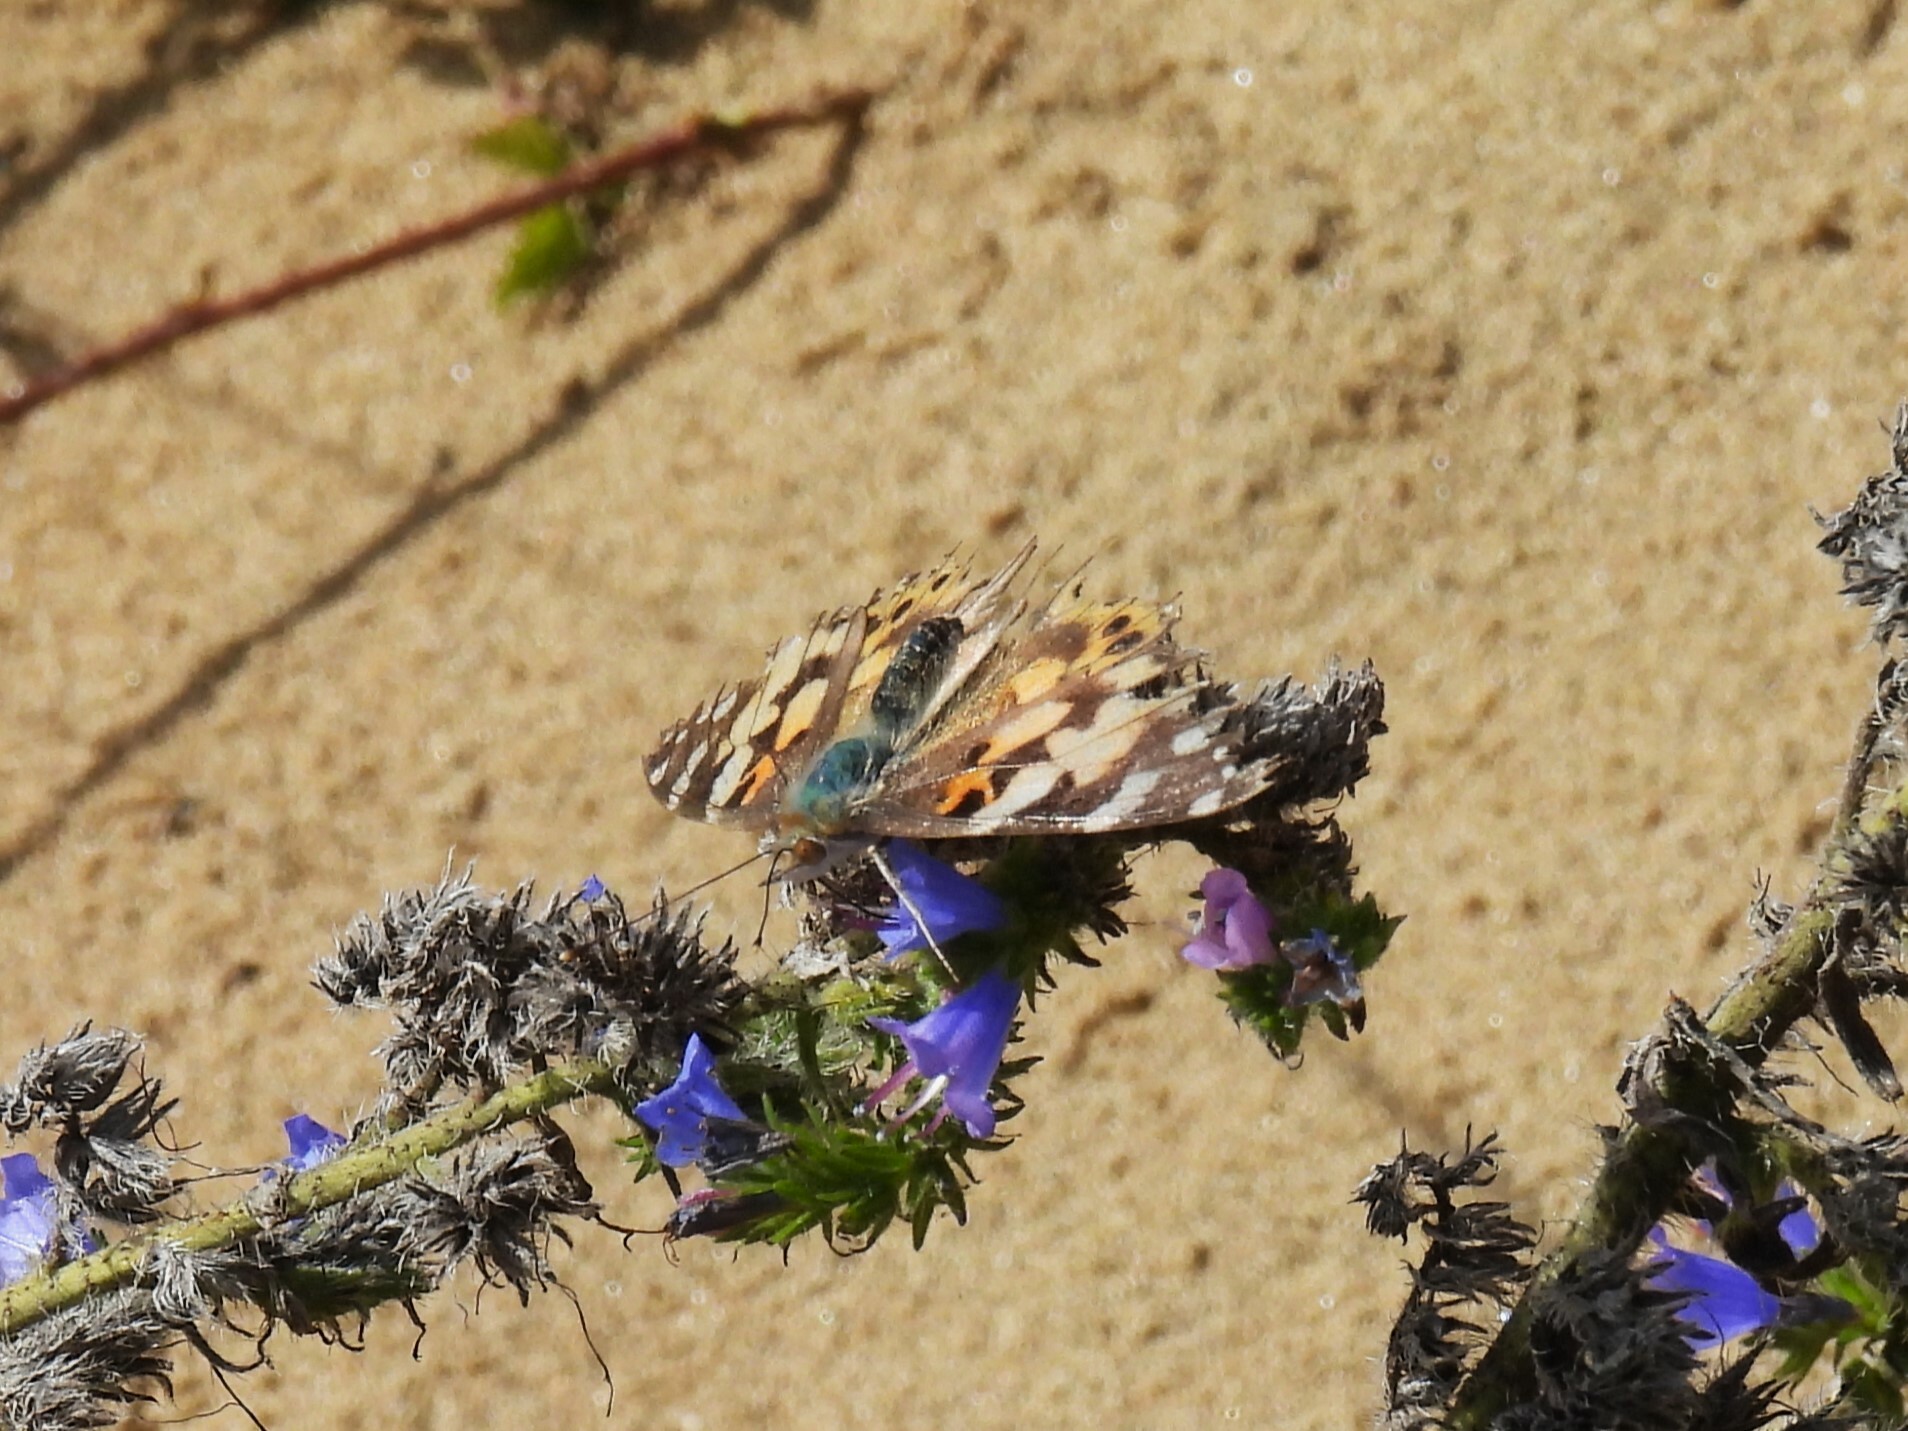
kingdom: Animalia
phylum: Arthropoda
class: Insecta
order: Lepidoptera
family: Nymphalidae
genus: Vanessa
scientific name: Vanessa cardui
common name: Painted lady
